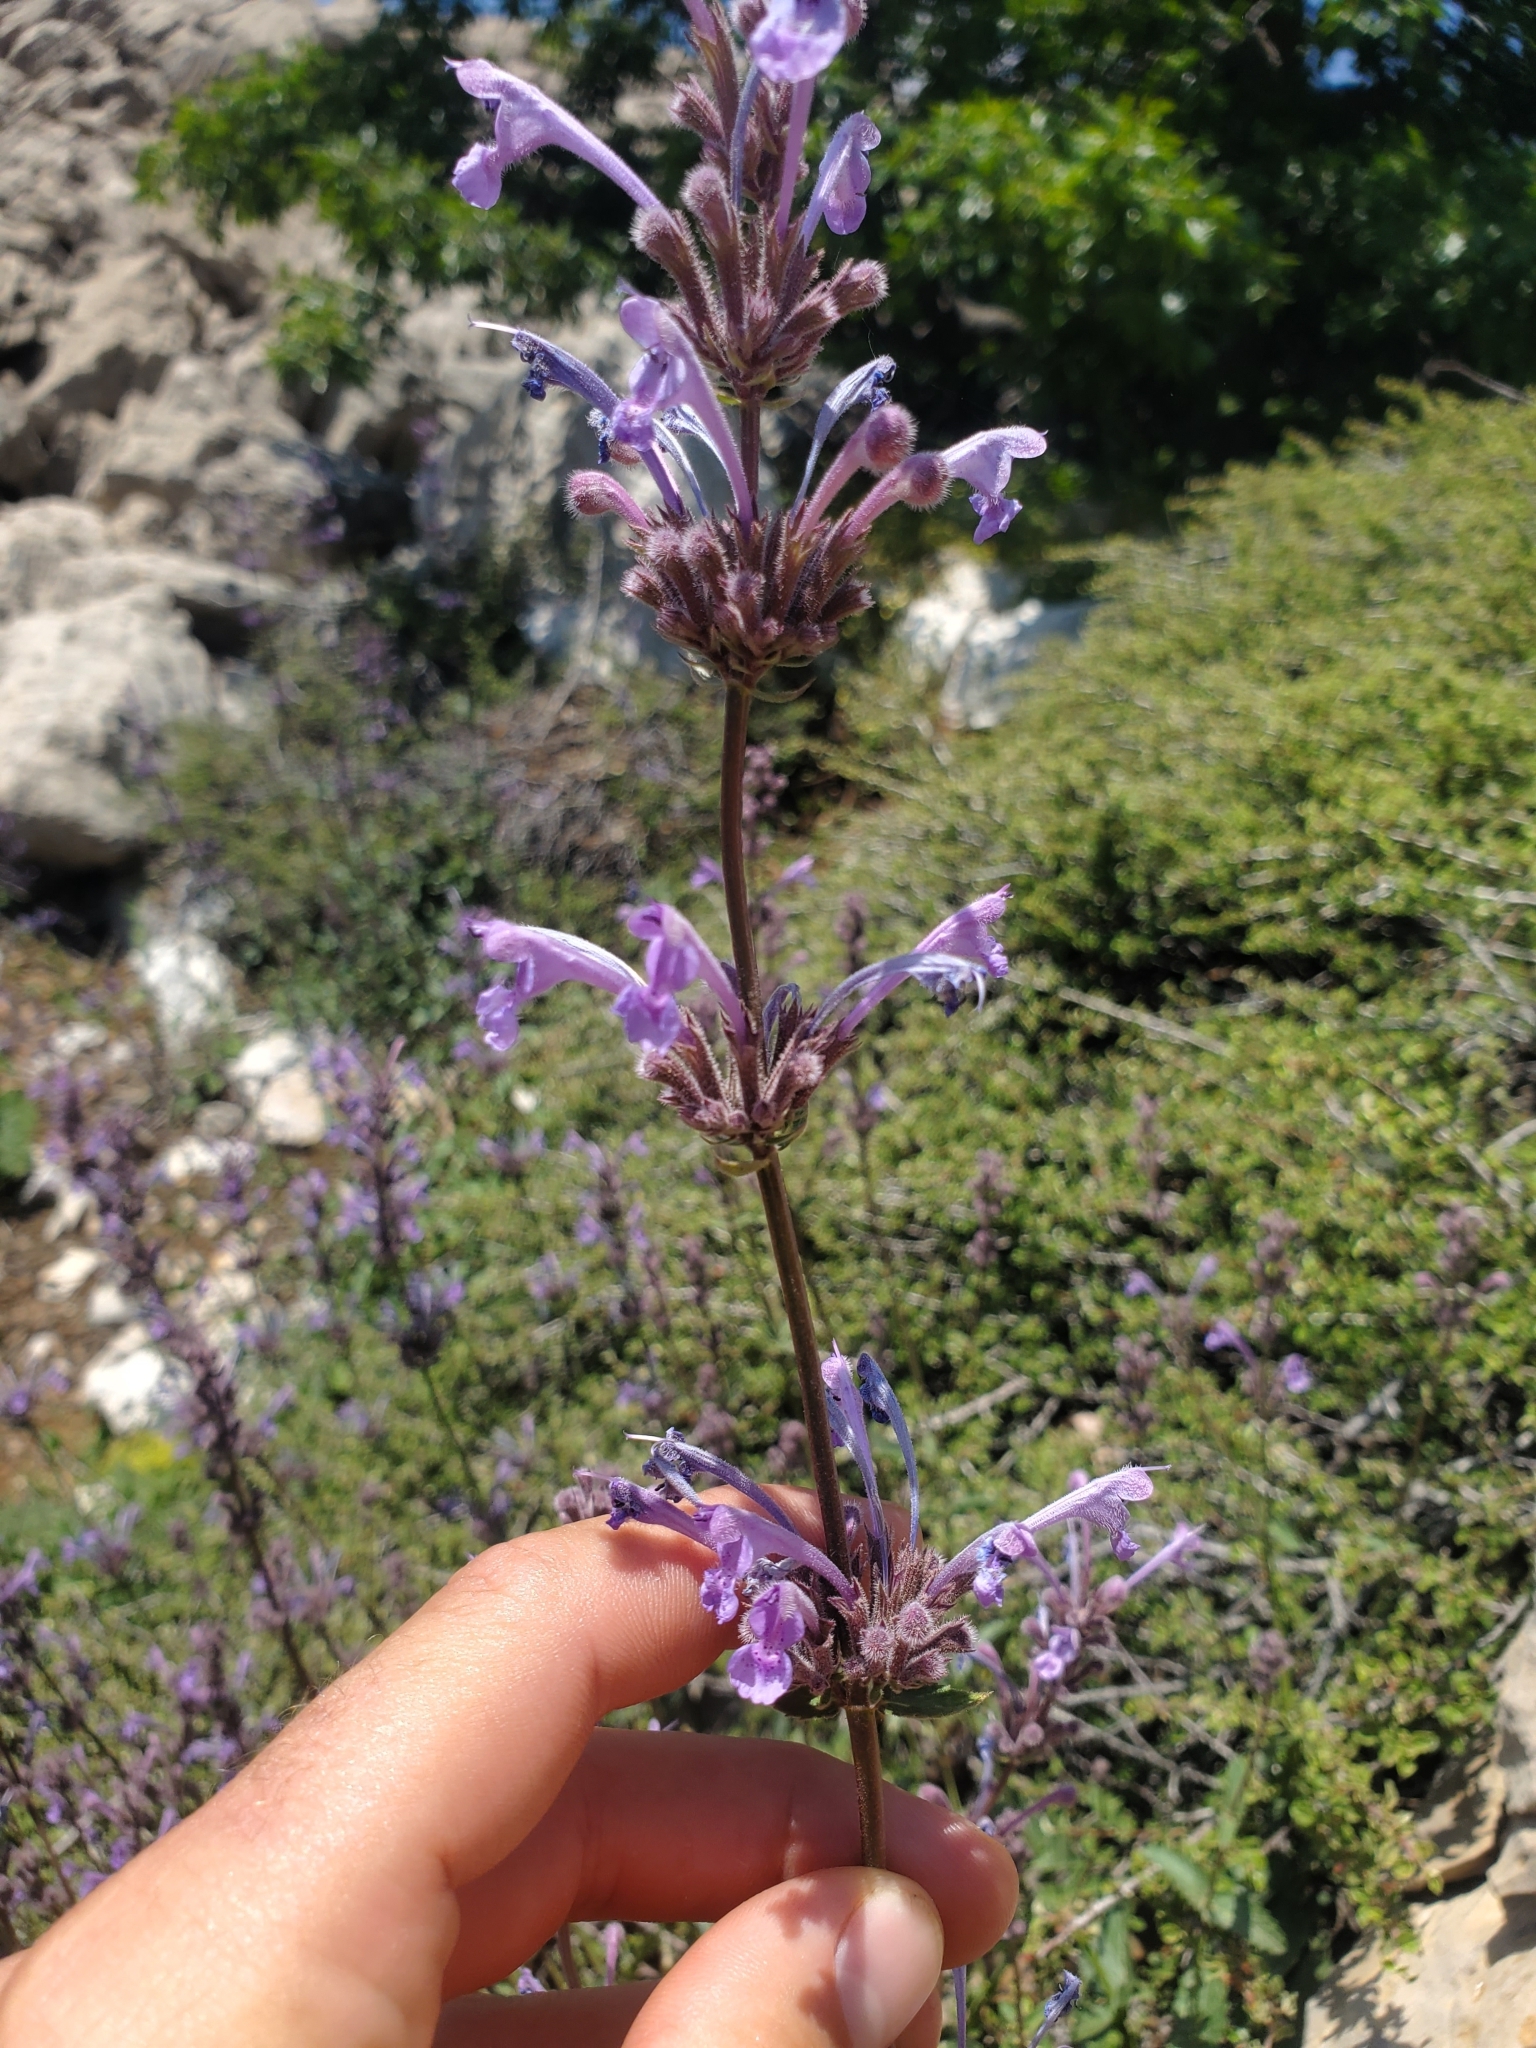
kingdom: Plantae
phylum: Tracheophyta
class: Magnoliopsida
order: Lamiales
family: Lamiaceae
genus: Nepeta
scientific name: Nepeta cilicia
